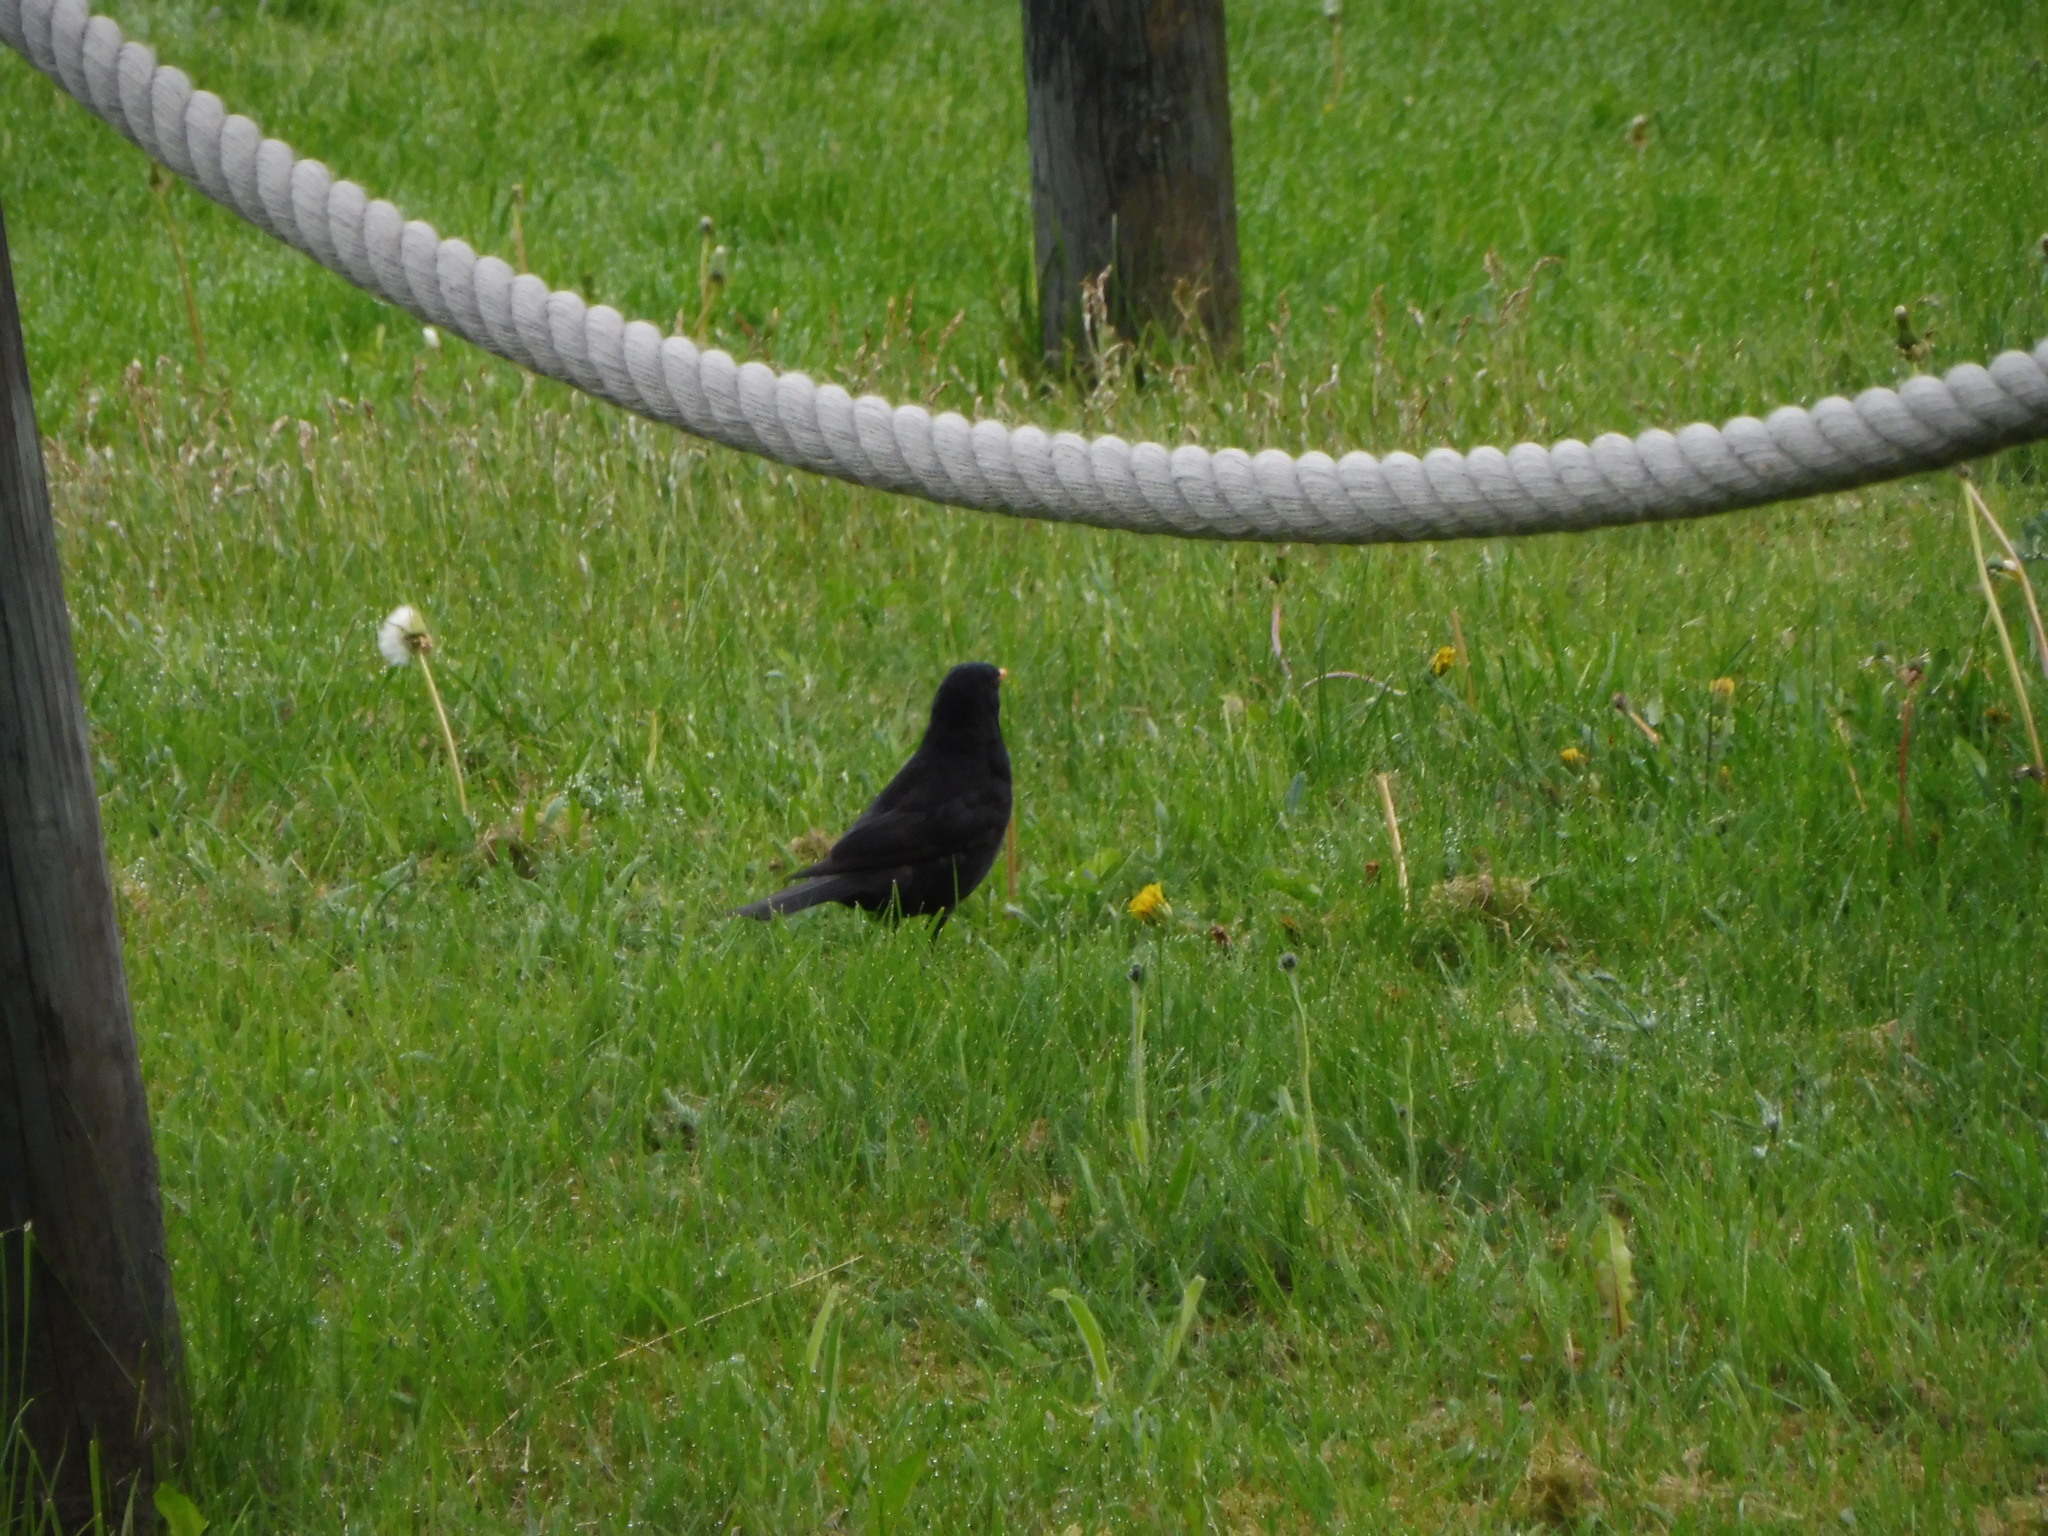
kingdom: Animalia
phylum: Chordata
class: Aves
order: Passeriformes
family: Turdidae
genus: Turdus
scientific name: Turdus merula
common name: Common blackbird
